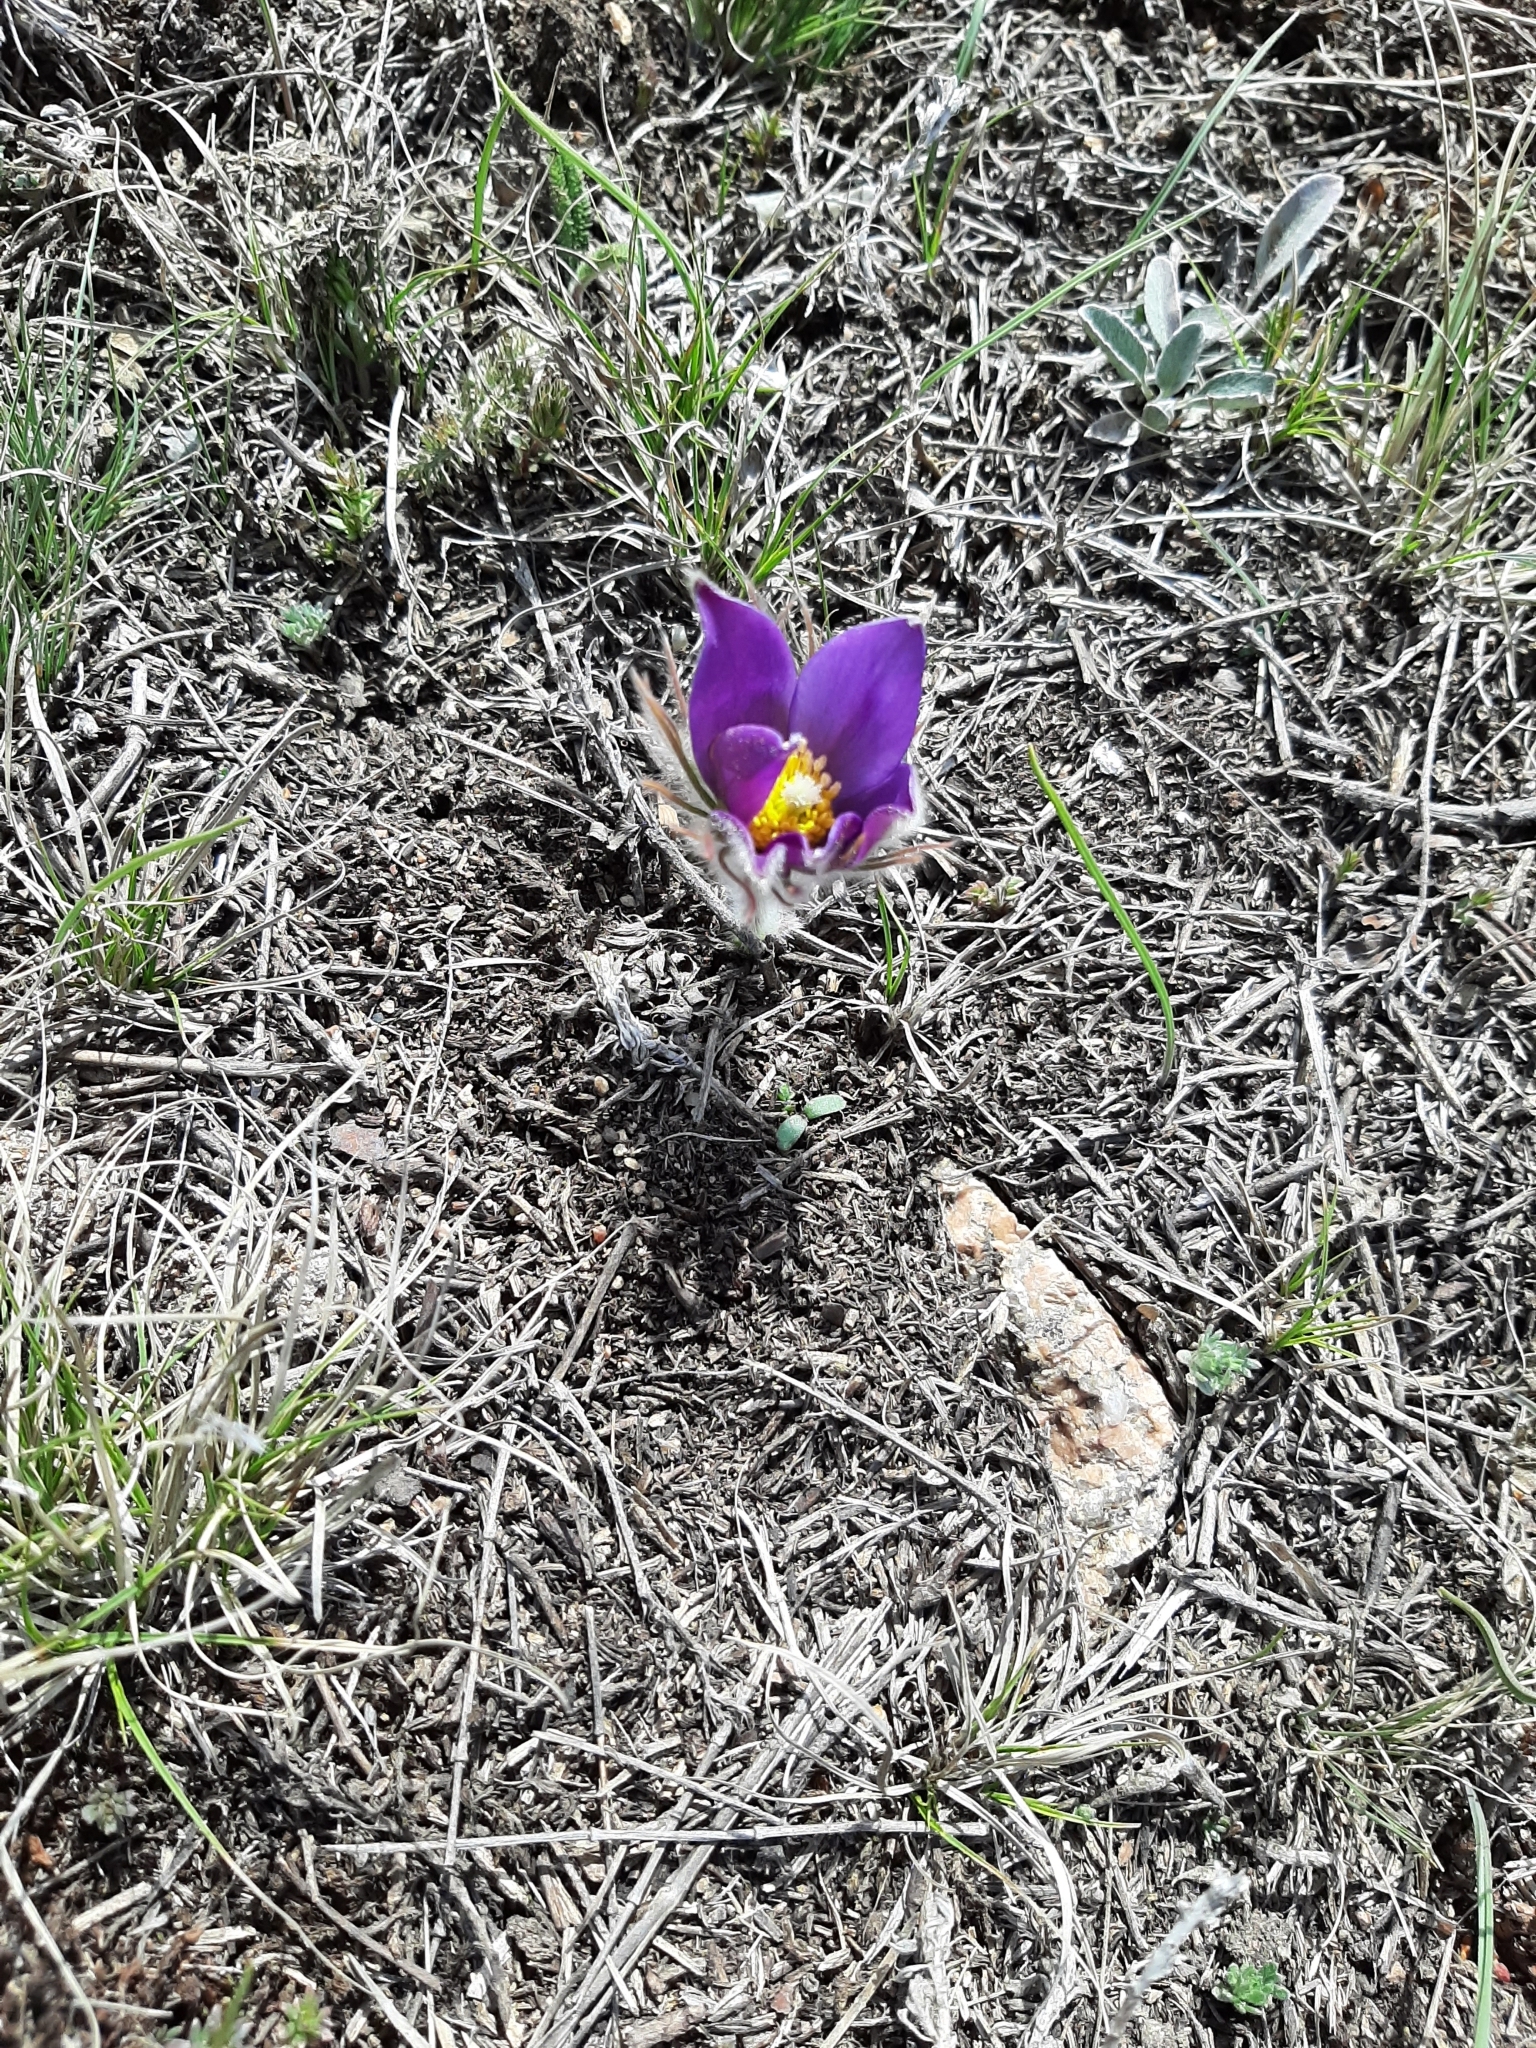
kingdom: Plantae
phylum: Tracheophyta
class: Magnoliopsida
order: Ranunculales
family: Ranunculaceae
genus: Pulsatilla
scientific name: Pulsatilla patens
